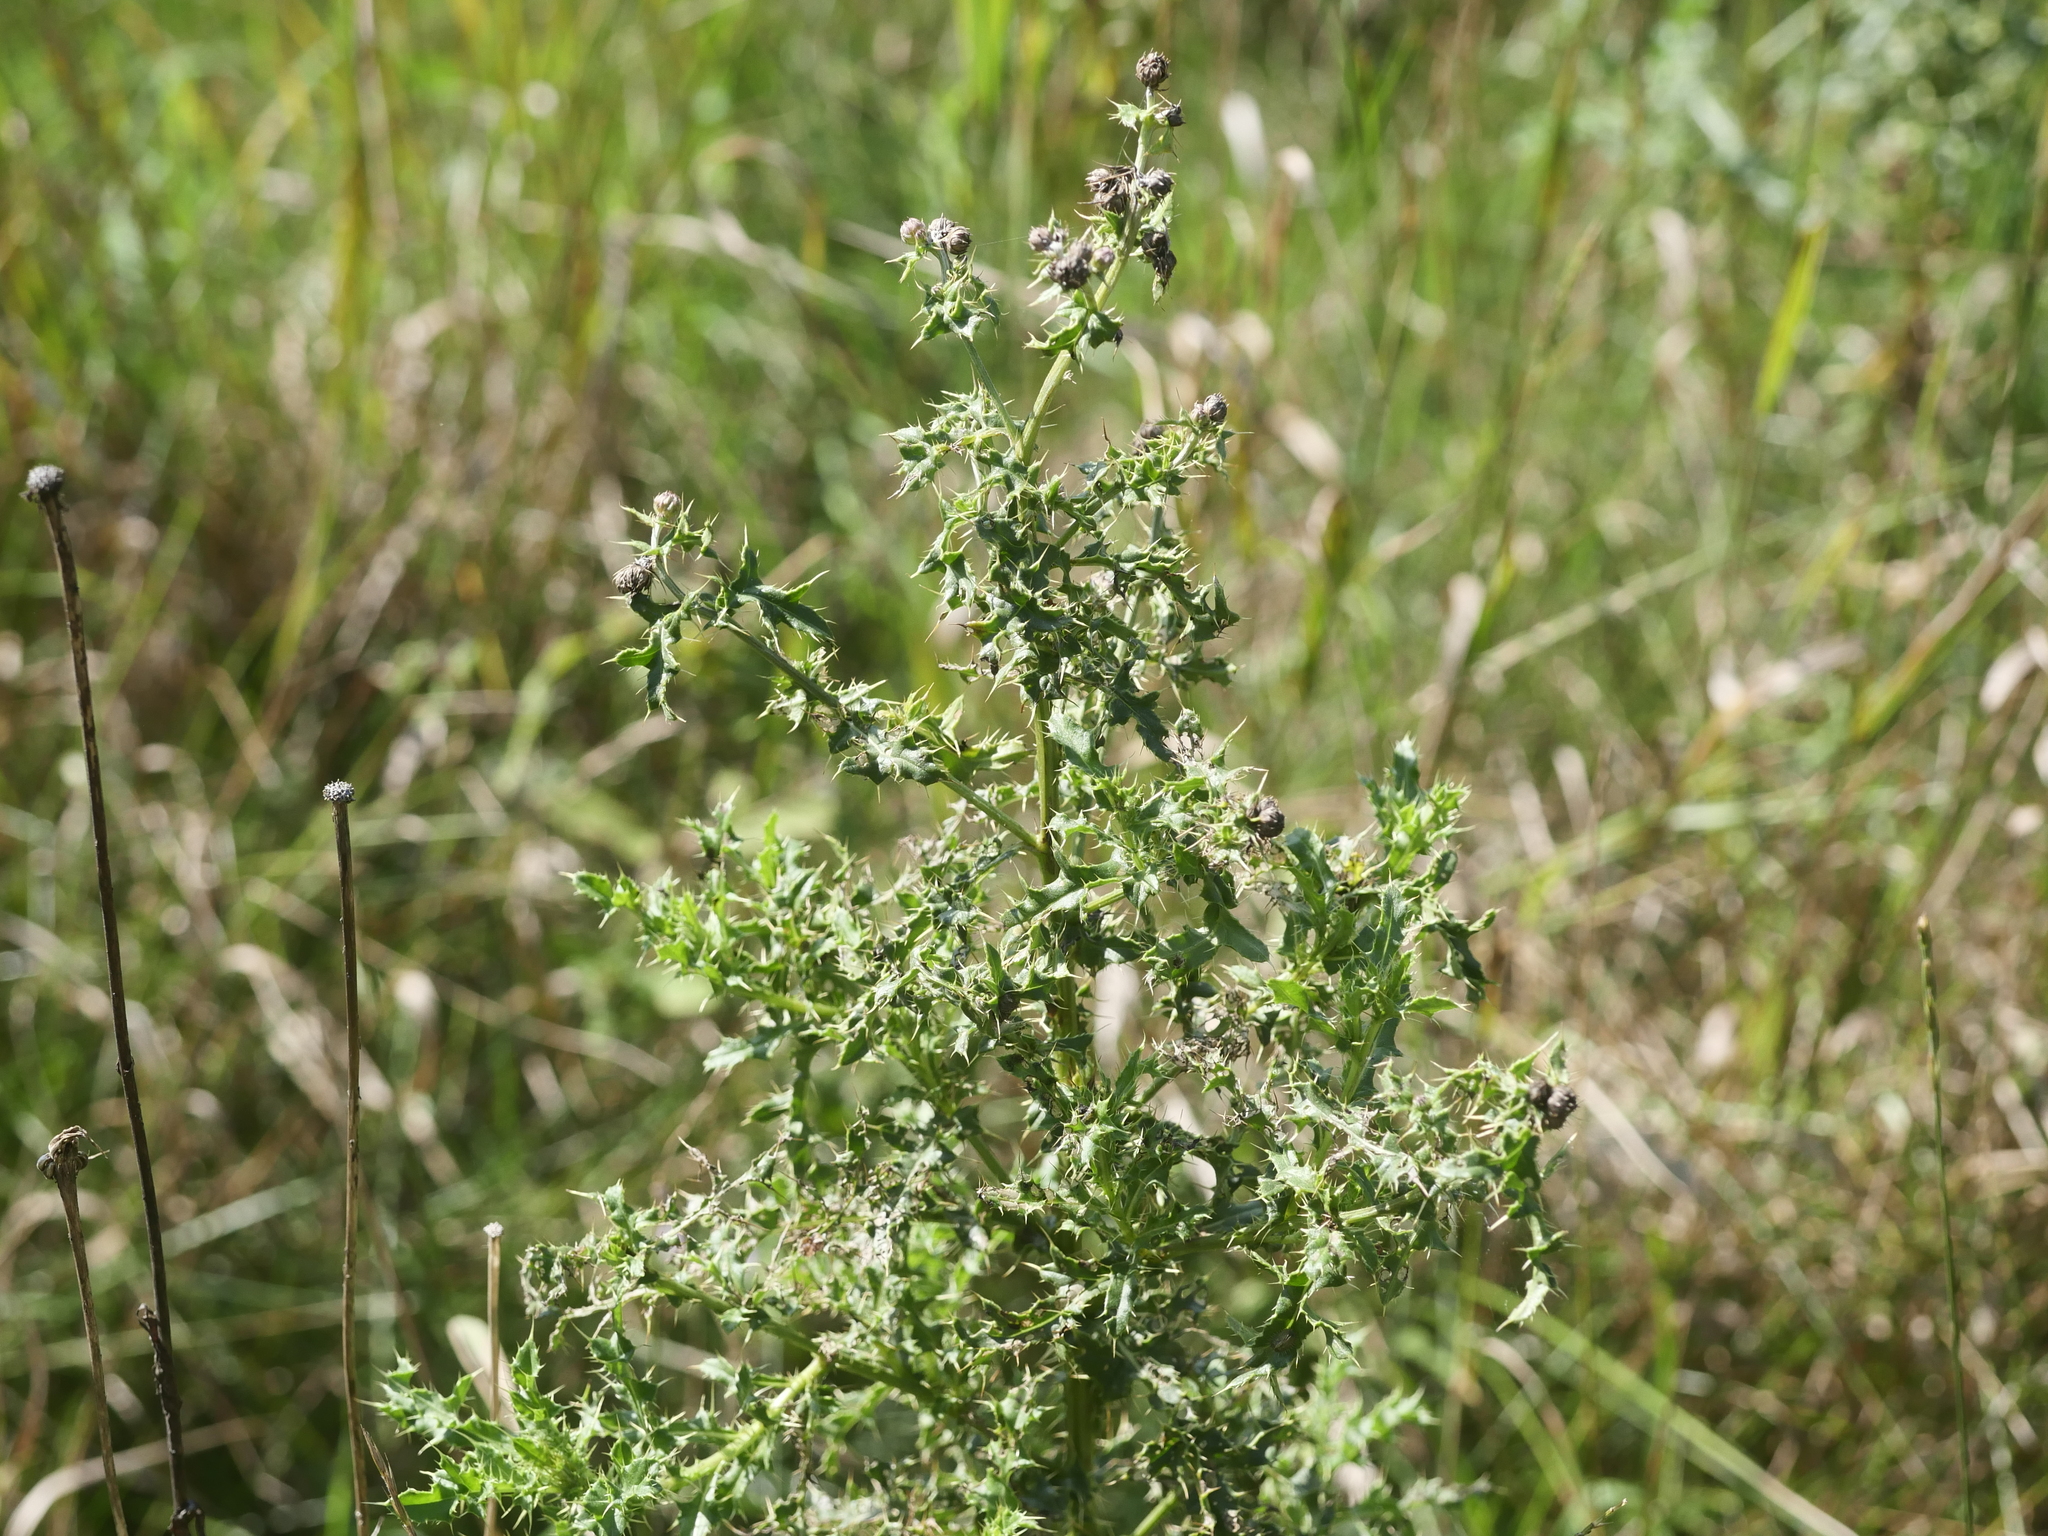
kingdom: Plantae
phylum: Tracheophyta
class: Magnoliopsida
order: Asterales
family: Asteraceae
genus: Cirsium
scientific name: Cirsium arvense
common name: Creeping thistle
